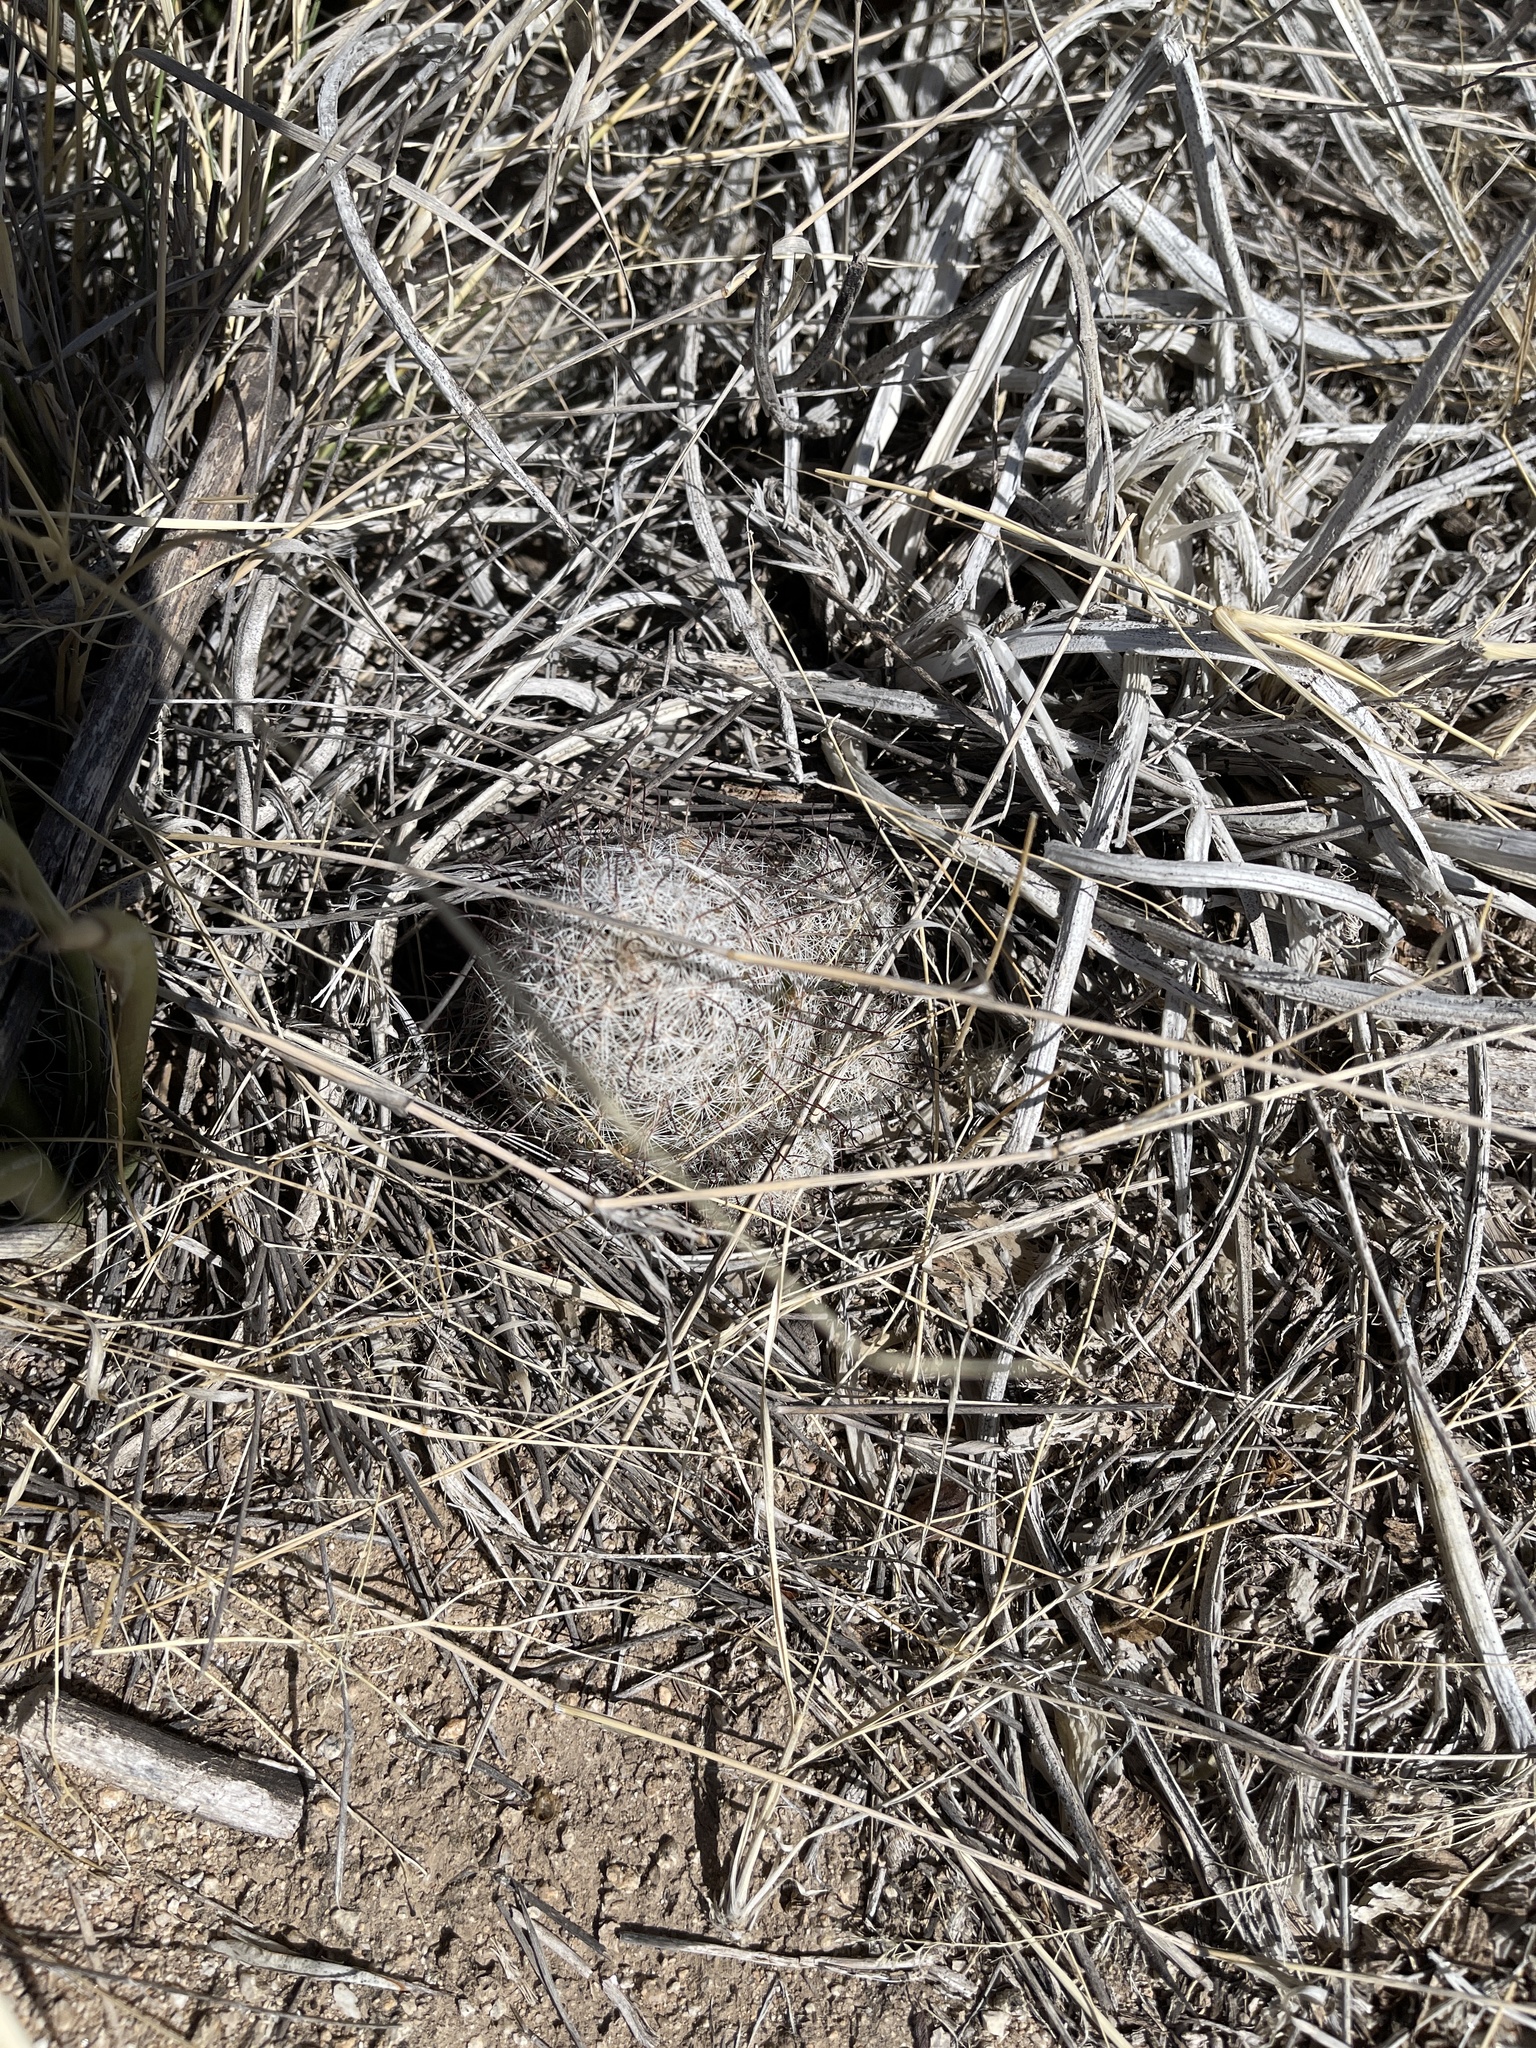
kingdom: Plantae
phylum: Tracheophyta
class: Magnoliopsida
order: Caryophyllales
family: Cactaceae
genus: Cochemiea
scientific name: Cochemiea grahamii
